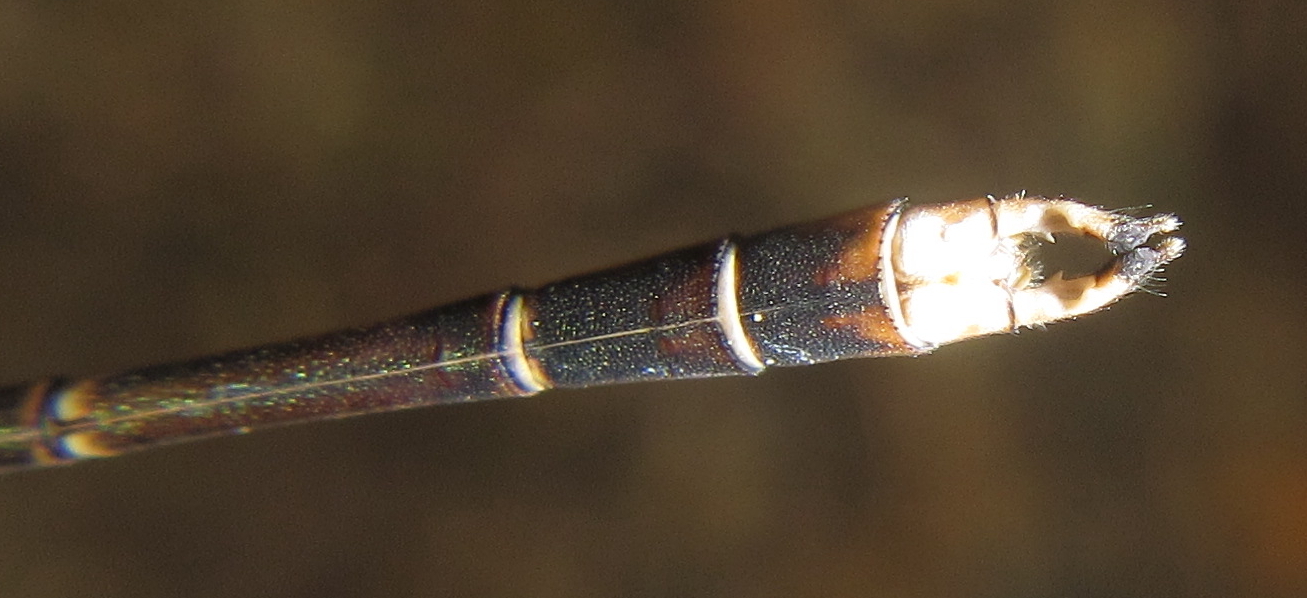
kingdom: Animalia
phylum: Arthropoda
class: Insecta
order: Odonata
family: Lestidae
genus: Lestes
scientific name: Lestes pinheyi
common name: Pinhey's spreadwing
